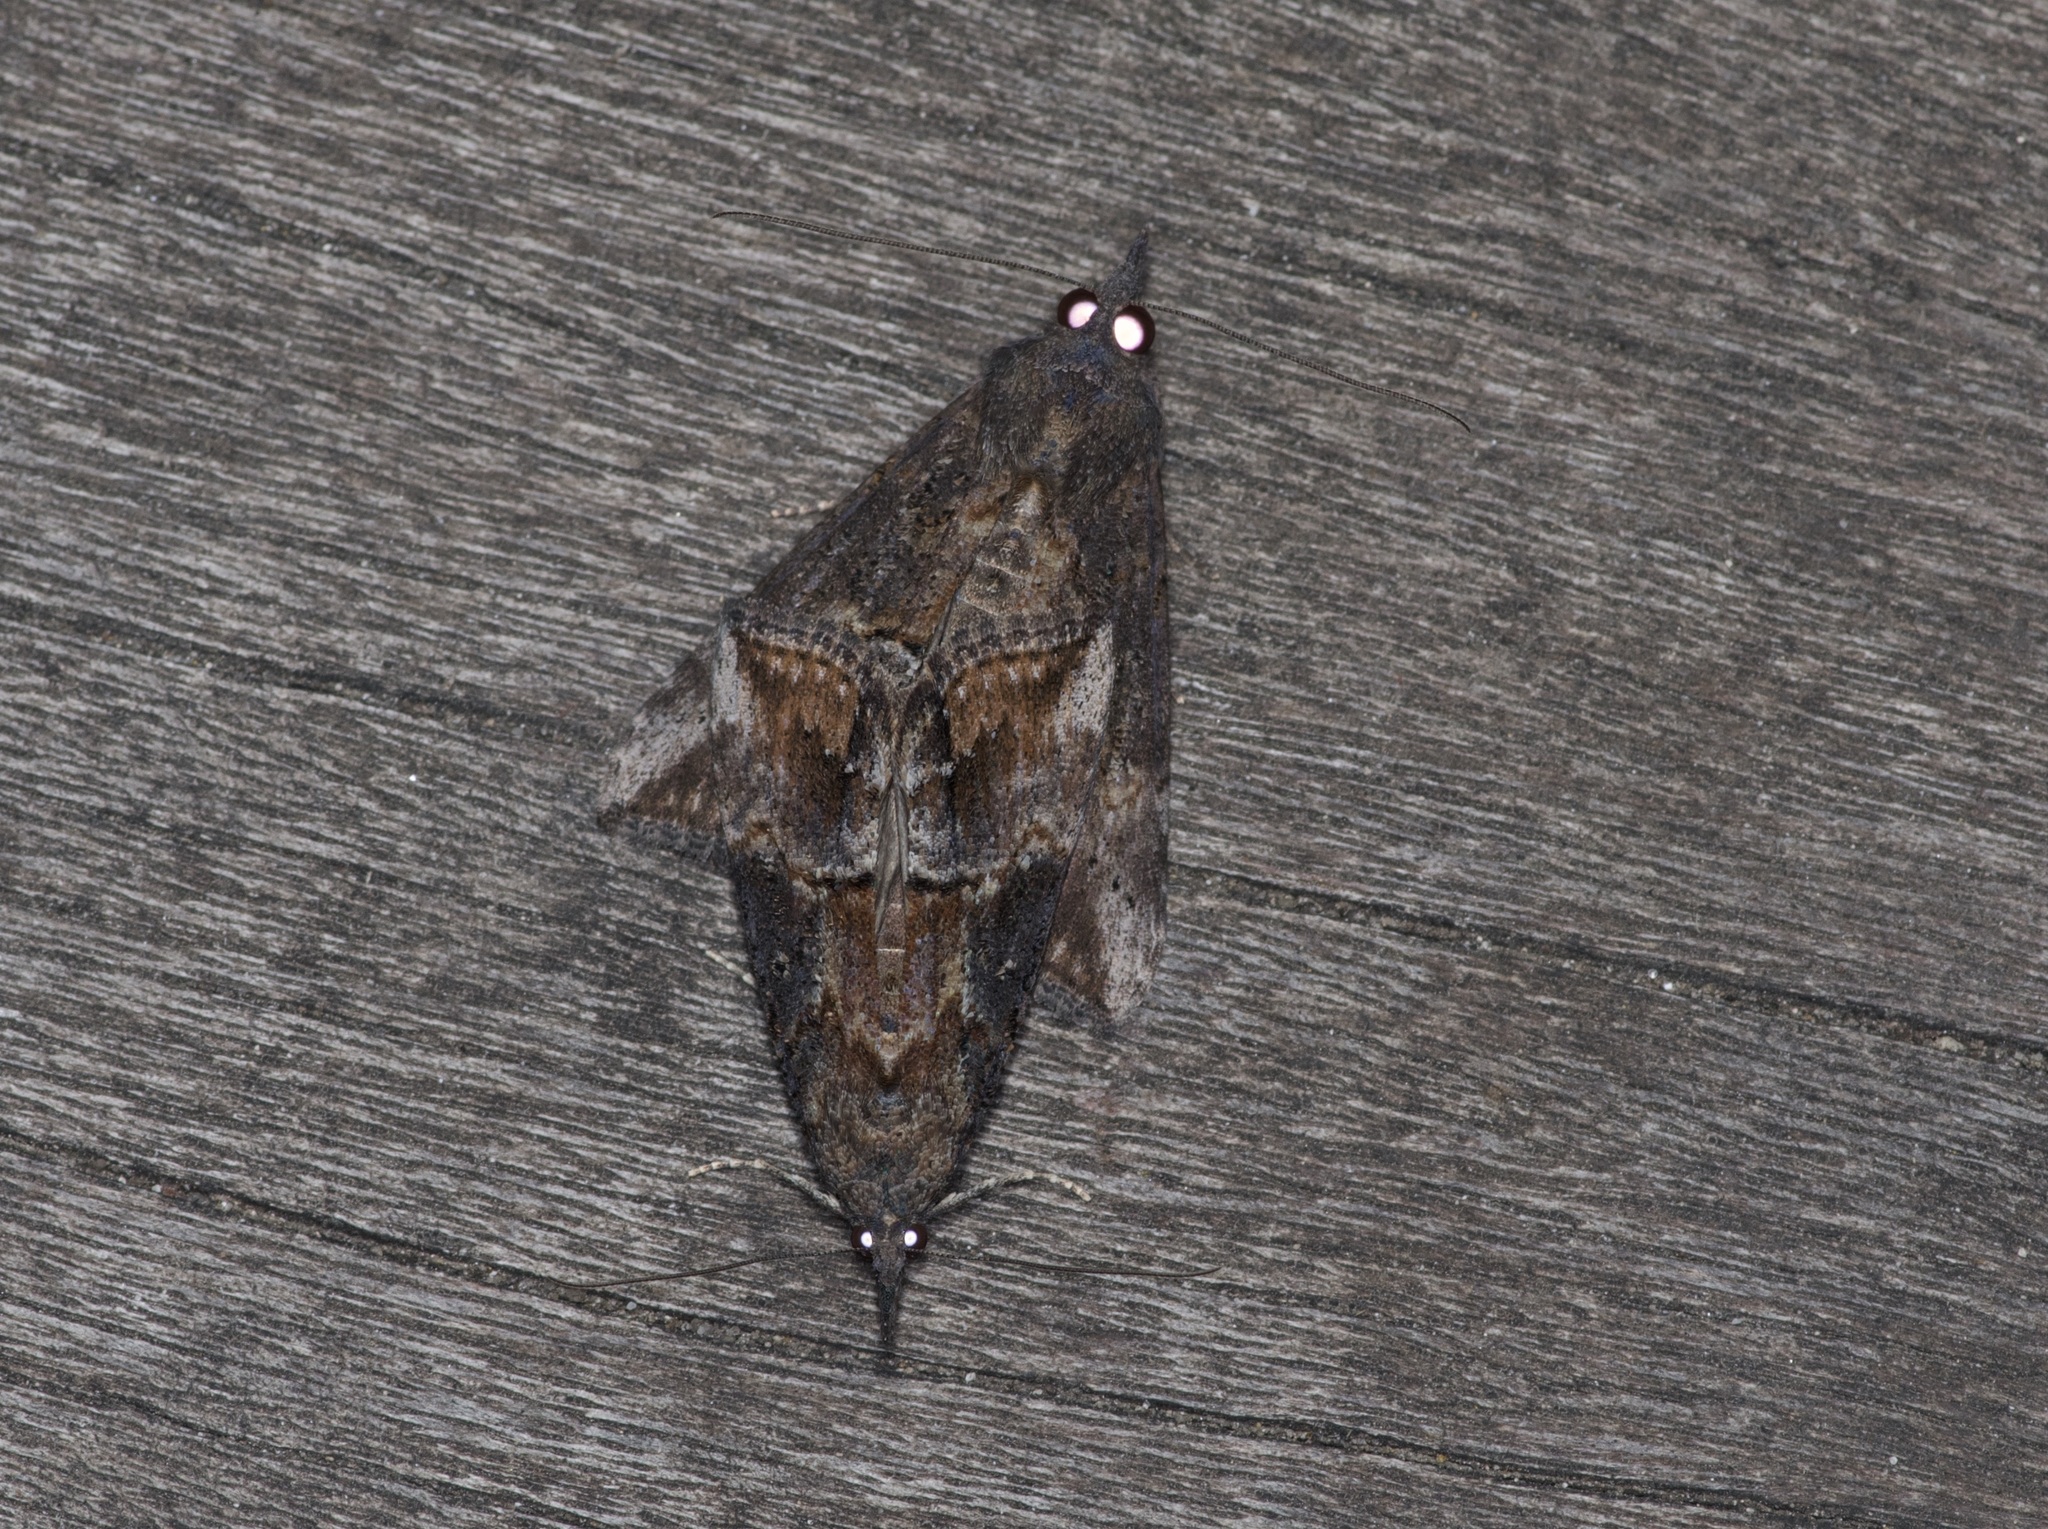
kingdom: Animalia
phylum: Arthropoda
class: Insecta
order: Lepidoptera
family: Erebidae
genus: Hypena
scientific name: Hypena scabra
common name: Green cloverworm
